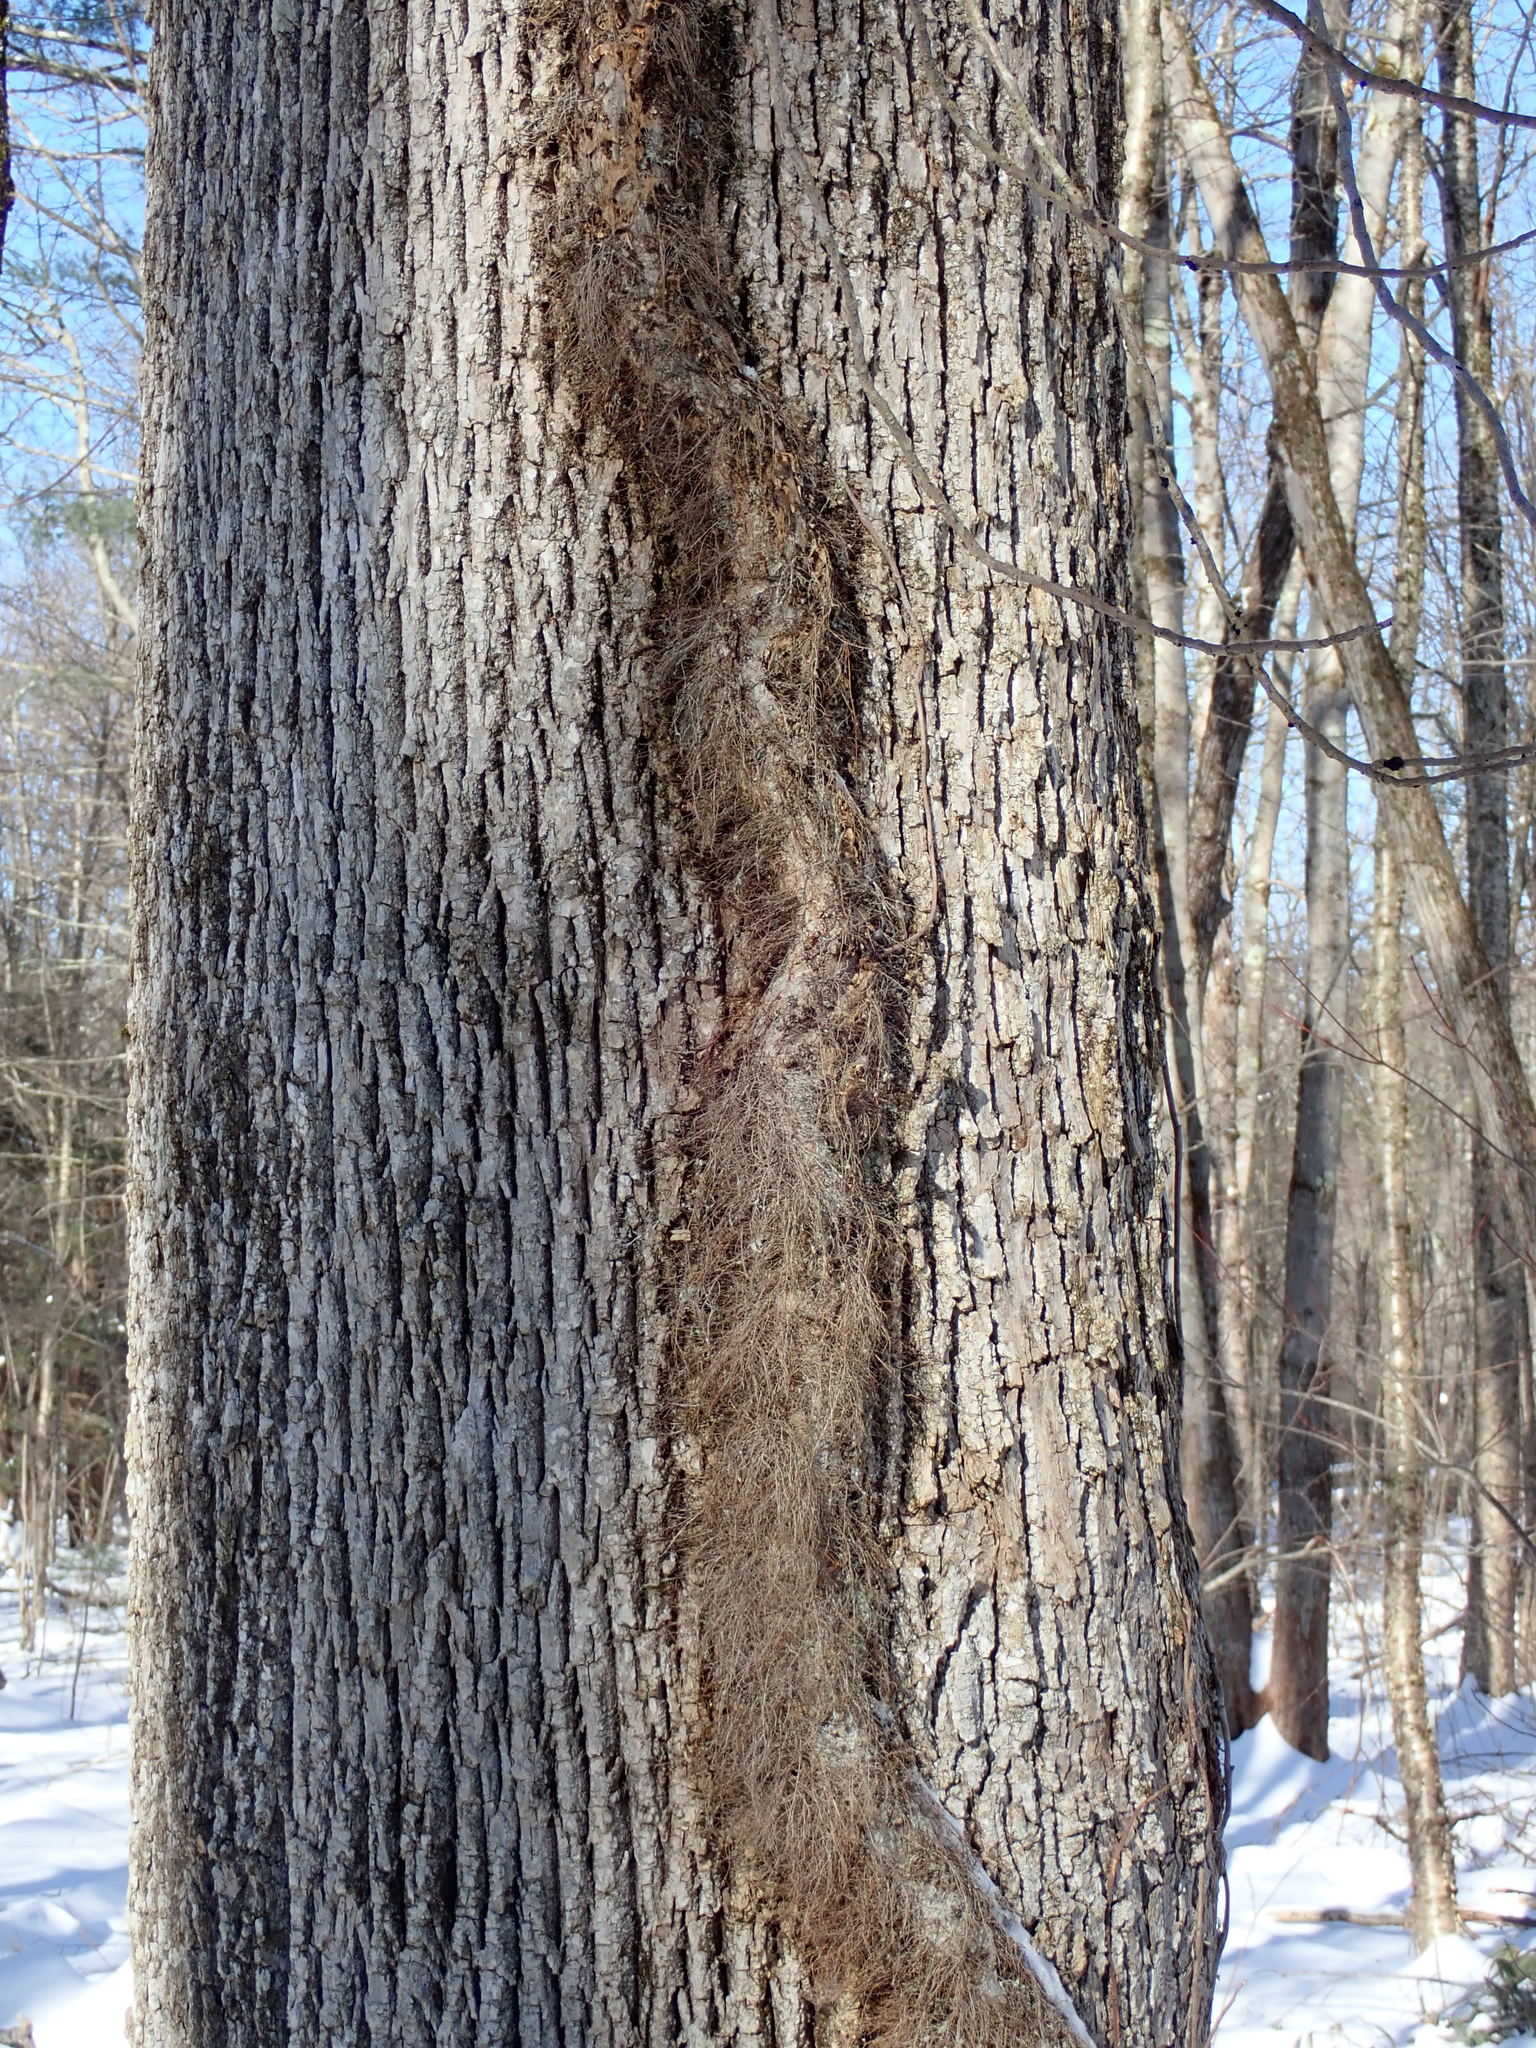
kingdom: Plantae
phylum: Tracheophyta
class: Magnoliopsida
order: Sapindales
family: Anacardiaceae
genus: Toxicodendron
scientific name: Toxicodendron radicans
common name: Poison ivy
